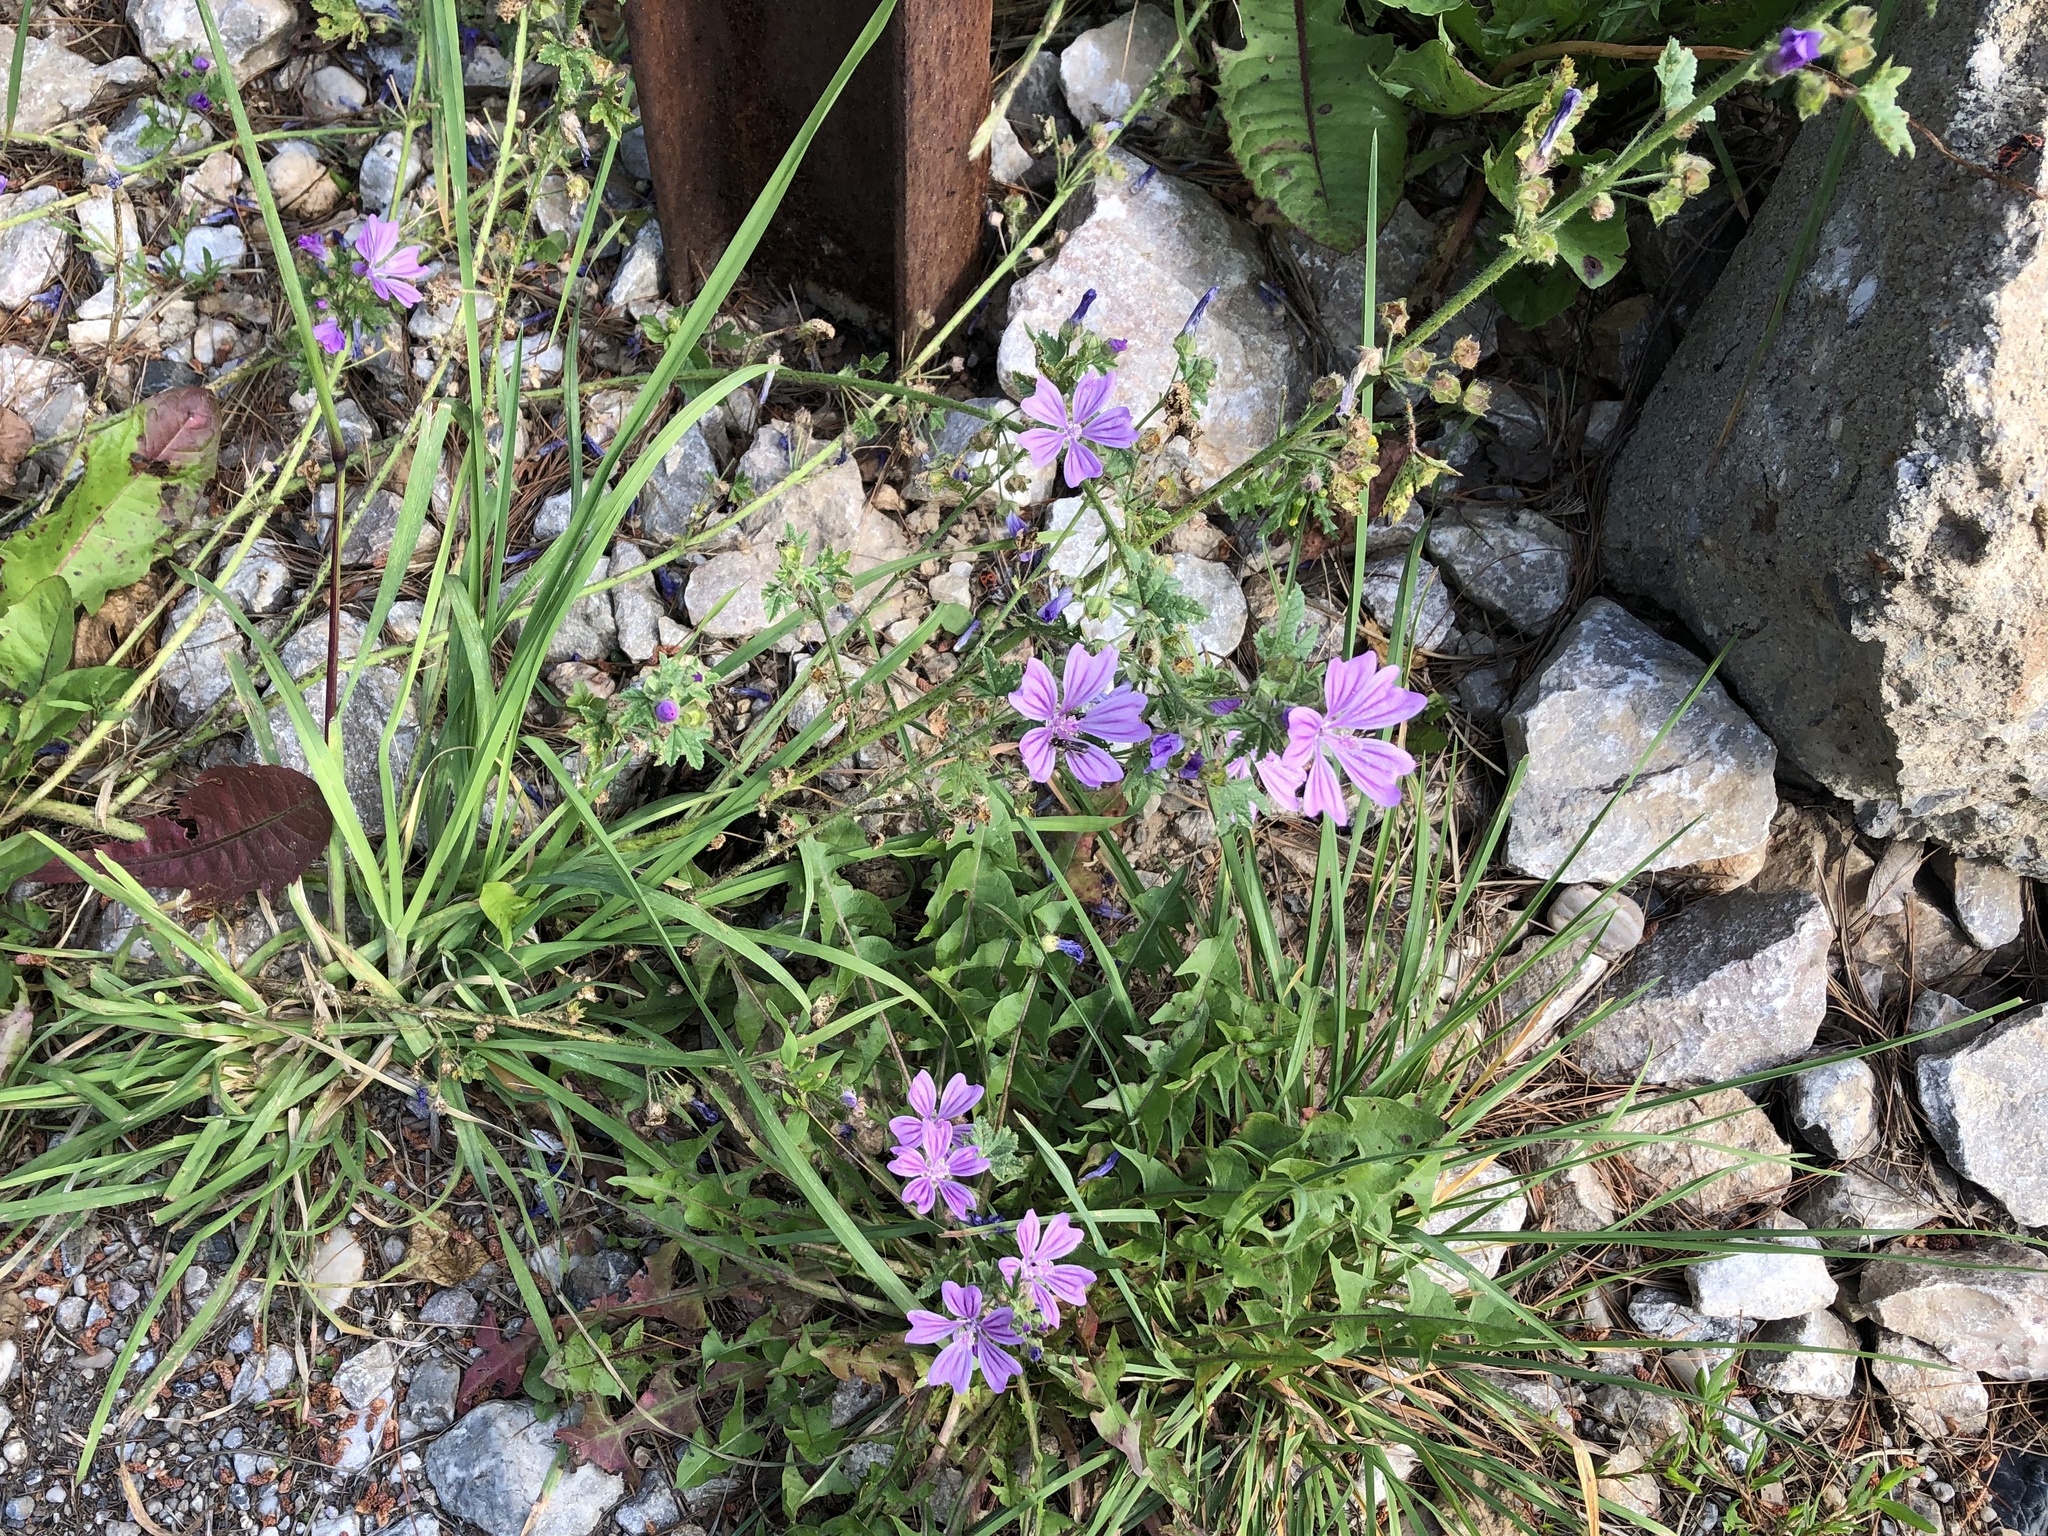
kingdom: Plantae
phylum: Tracheophyta
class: Magnoliopsida
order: Malvales
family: Malvaceae
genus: Malva
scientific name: Malva sylvestris
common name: Common mallow
